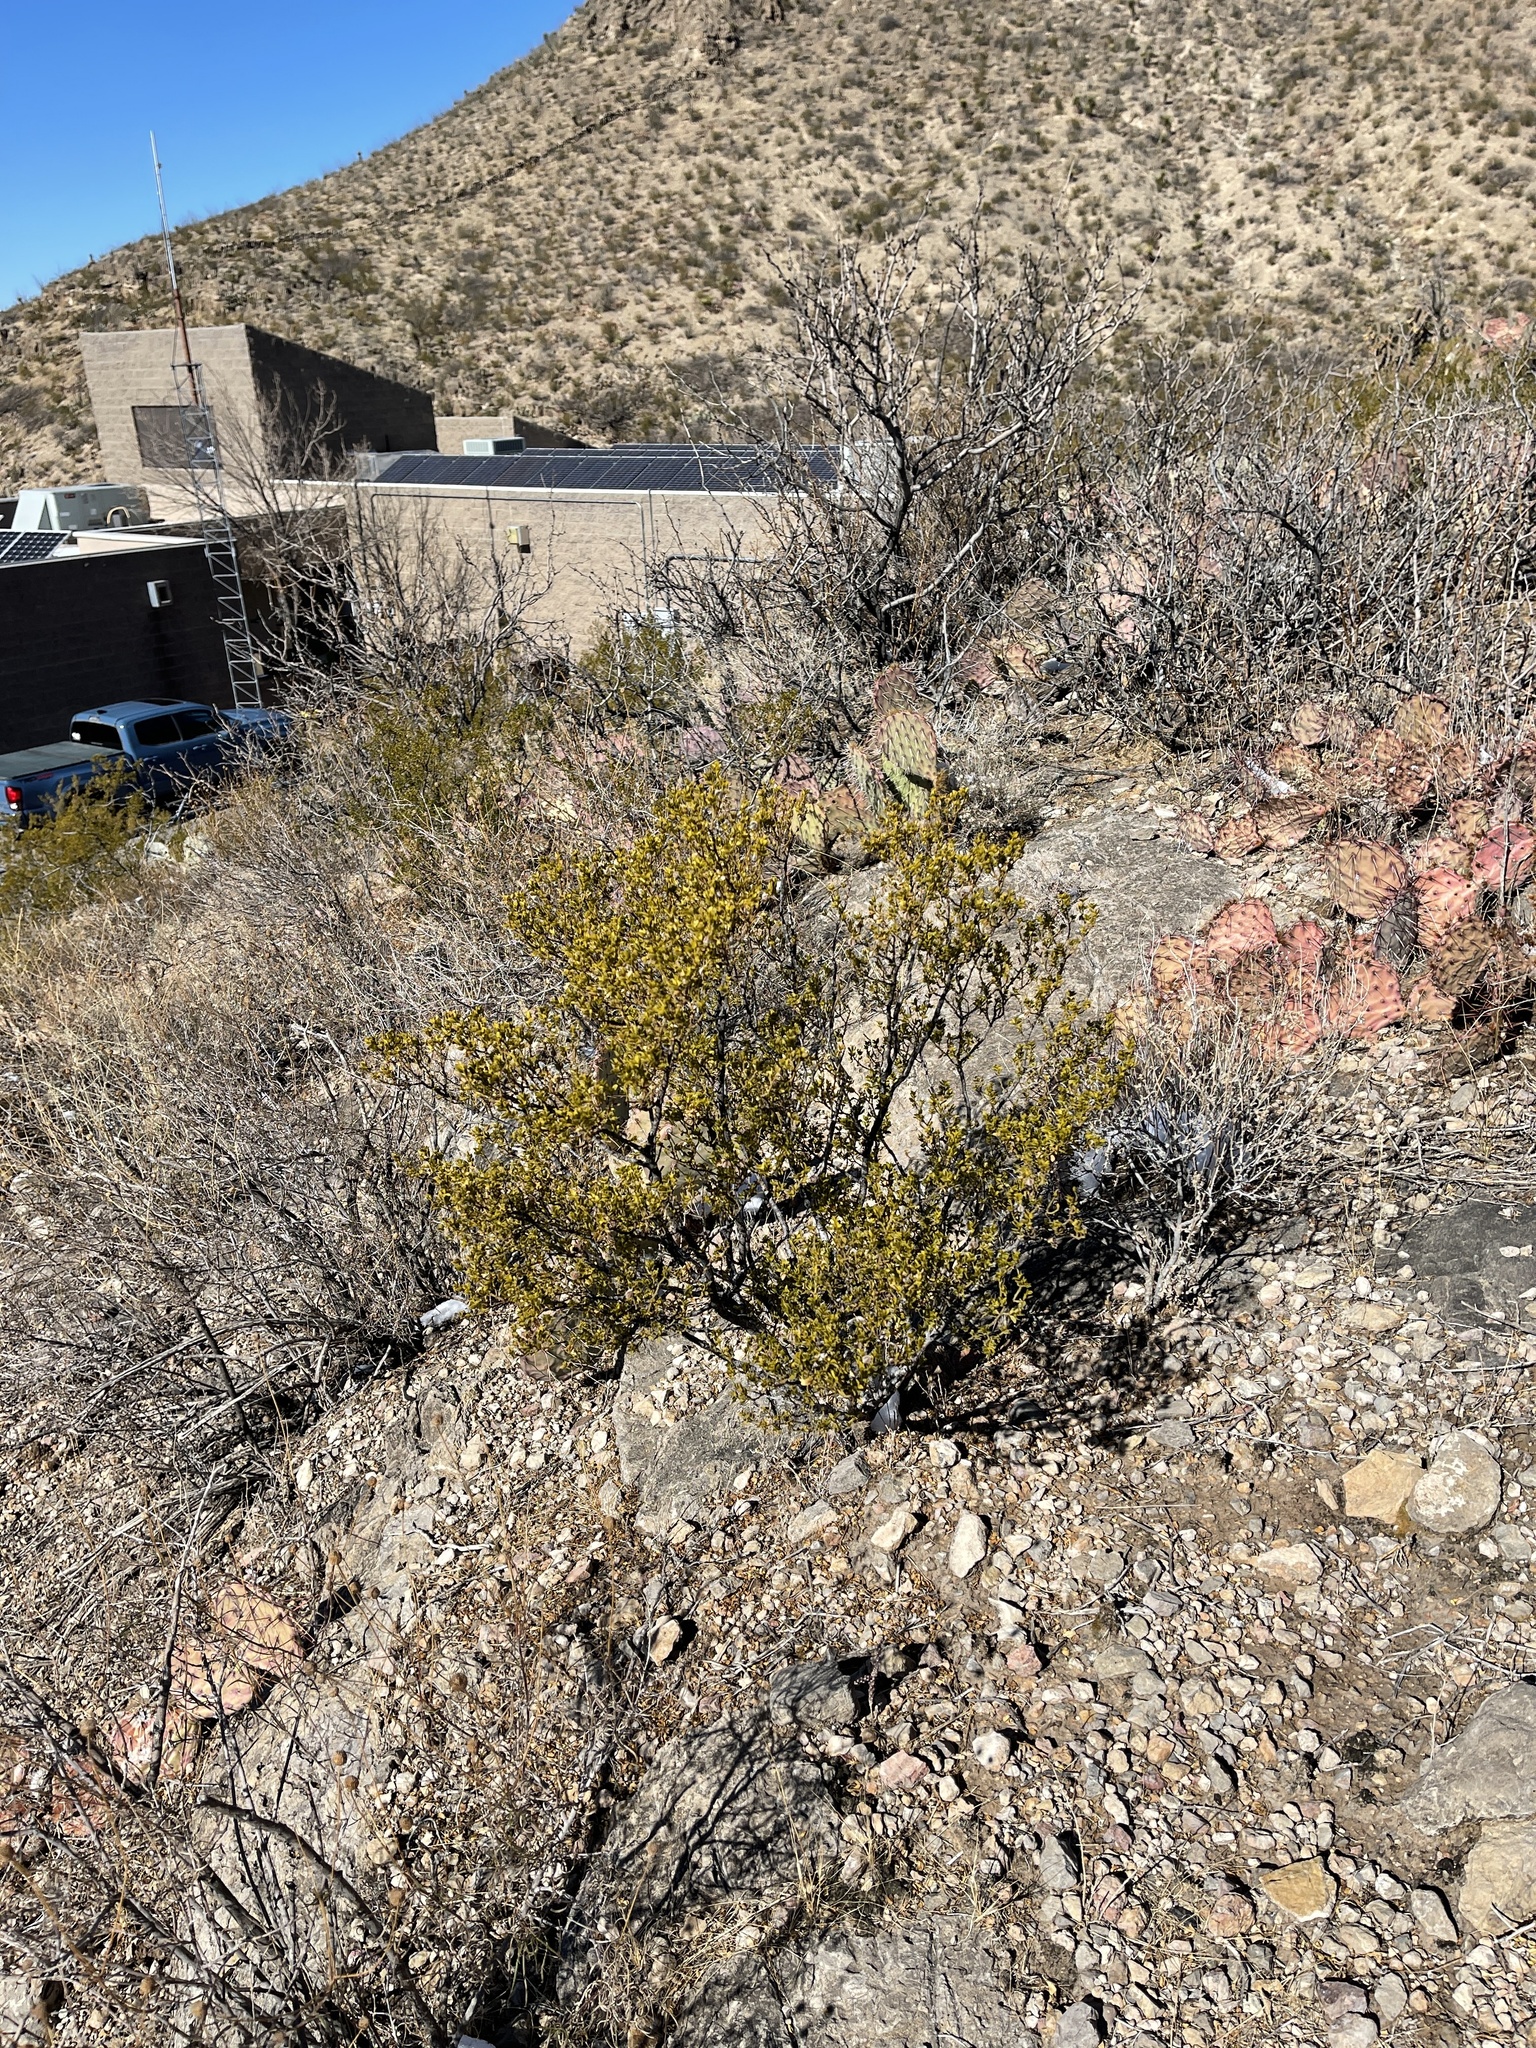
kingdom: Plantae
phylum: Tracheophyta
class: Magnoliopsida
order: Zygophyllales
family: Zygophyllaceae
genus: Larrea
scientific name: Larrea tridentata
